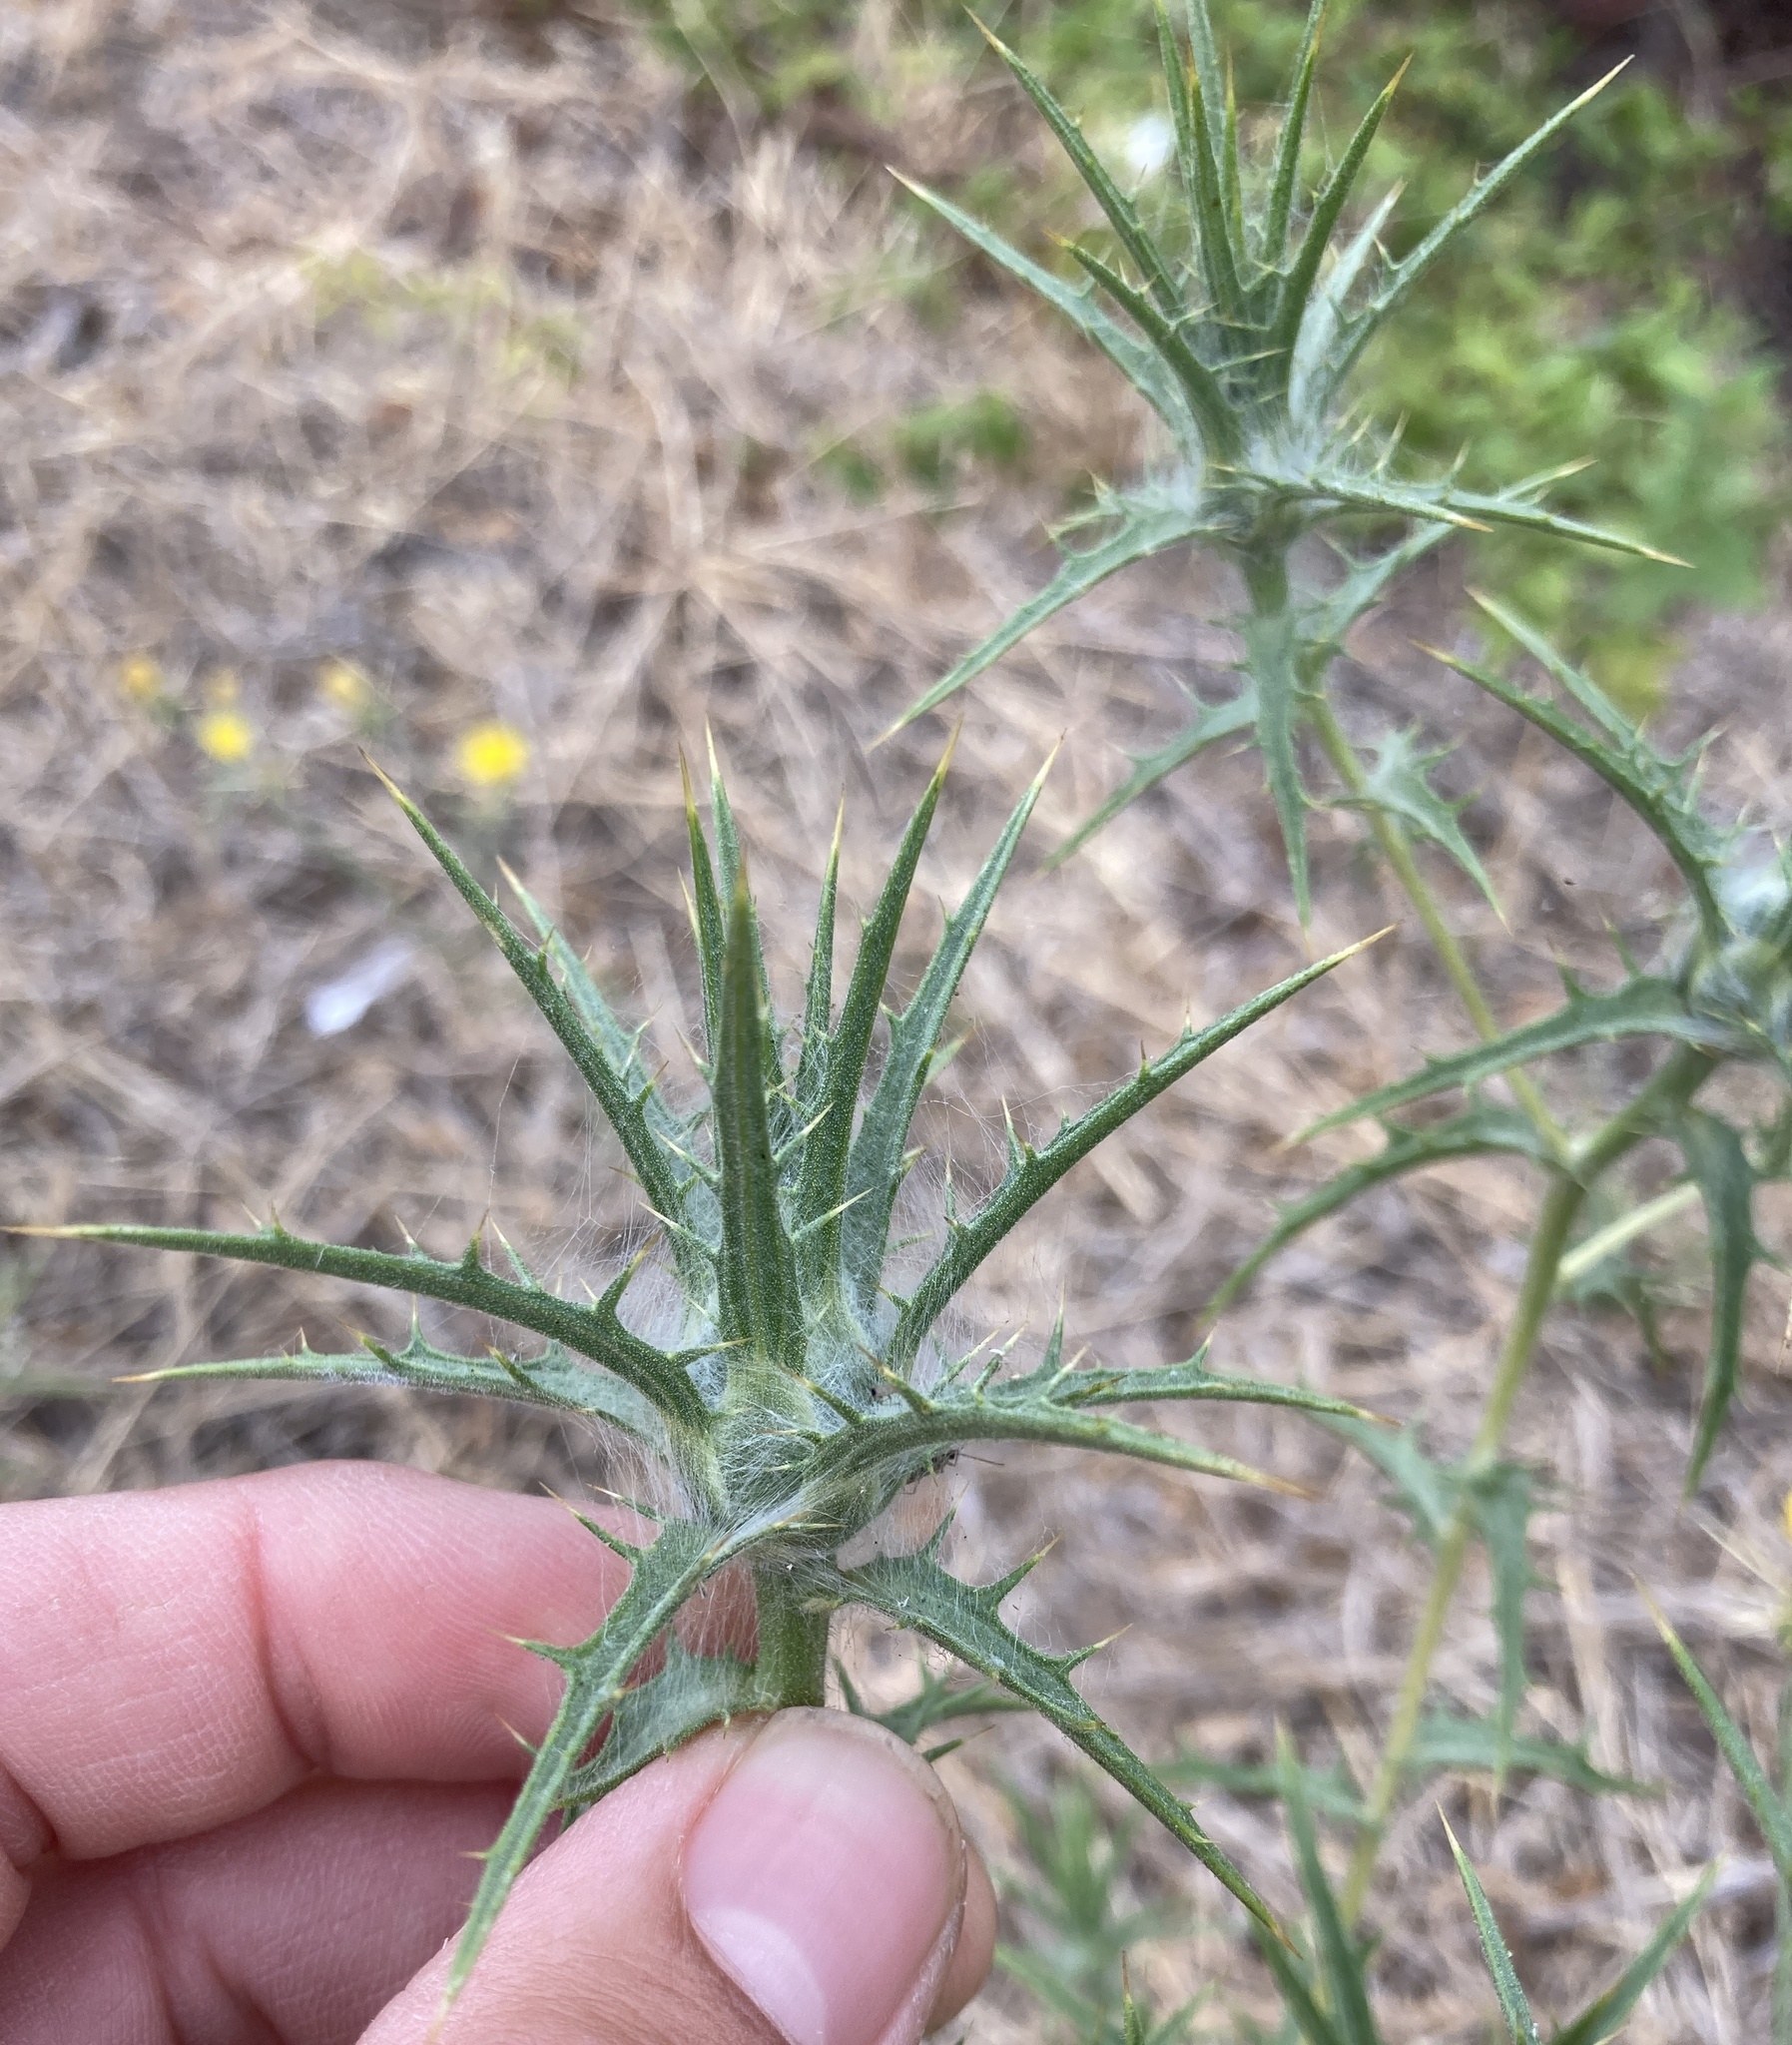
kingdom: Plantae
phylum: Tracheophyta
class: Magnoliopsida
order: Asterales
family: Asteraceae
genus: Carthamus
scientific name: Carthamus lanatus
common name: Downy safflower
